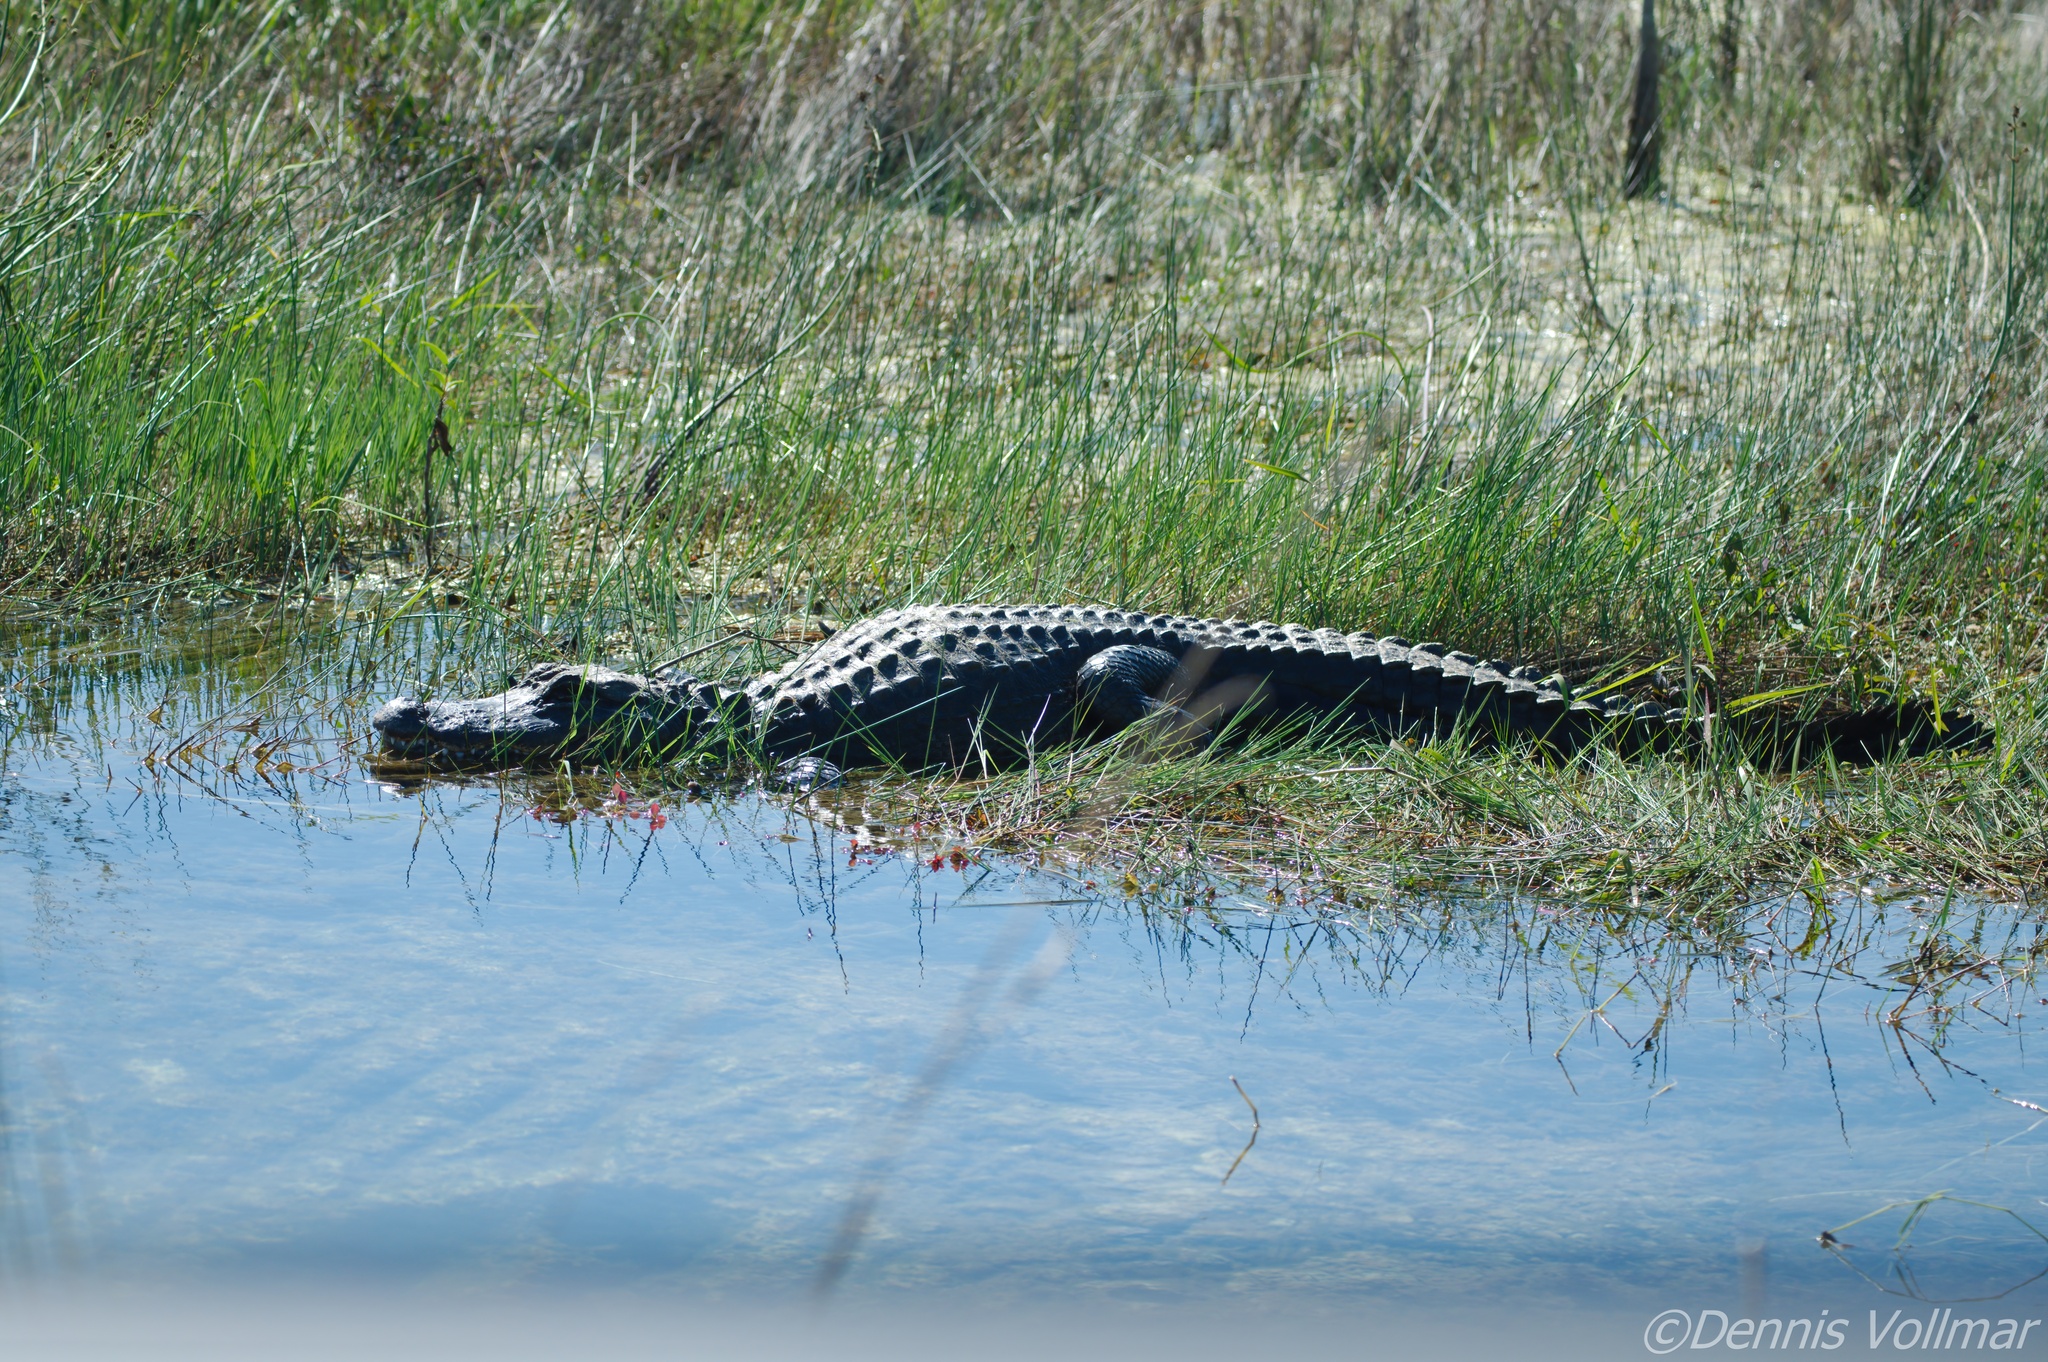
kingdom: Animalia
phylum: Chordata
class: Crocodylia
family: Alligatoridae
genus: Alligator
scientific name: Alligator mississippiensis
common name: American alligator
